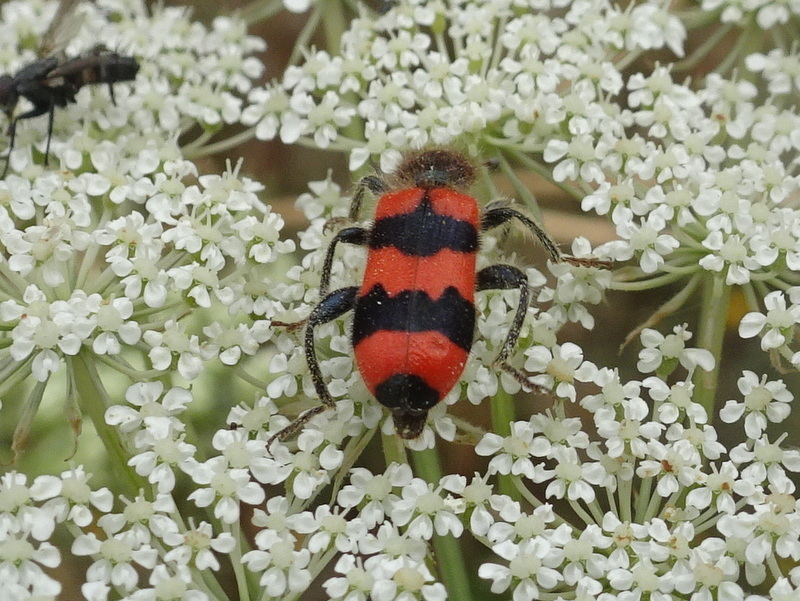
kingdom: Animalia
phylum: Arthropoda
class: Insecta
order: Coleoptera
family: Cleridae
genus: Trichodes
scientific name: Trichodes apiarius
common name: Bee-eating beetle
